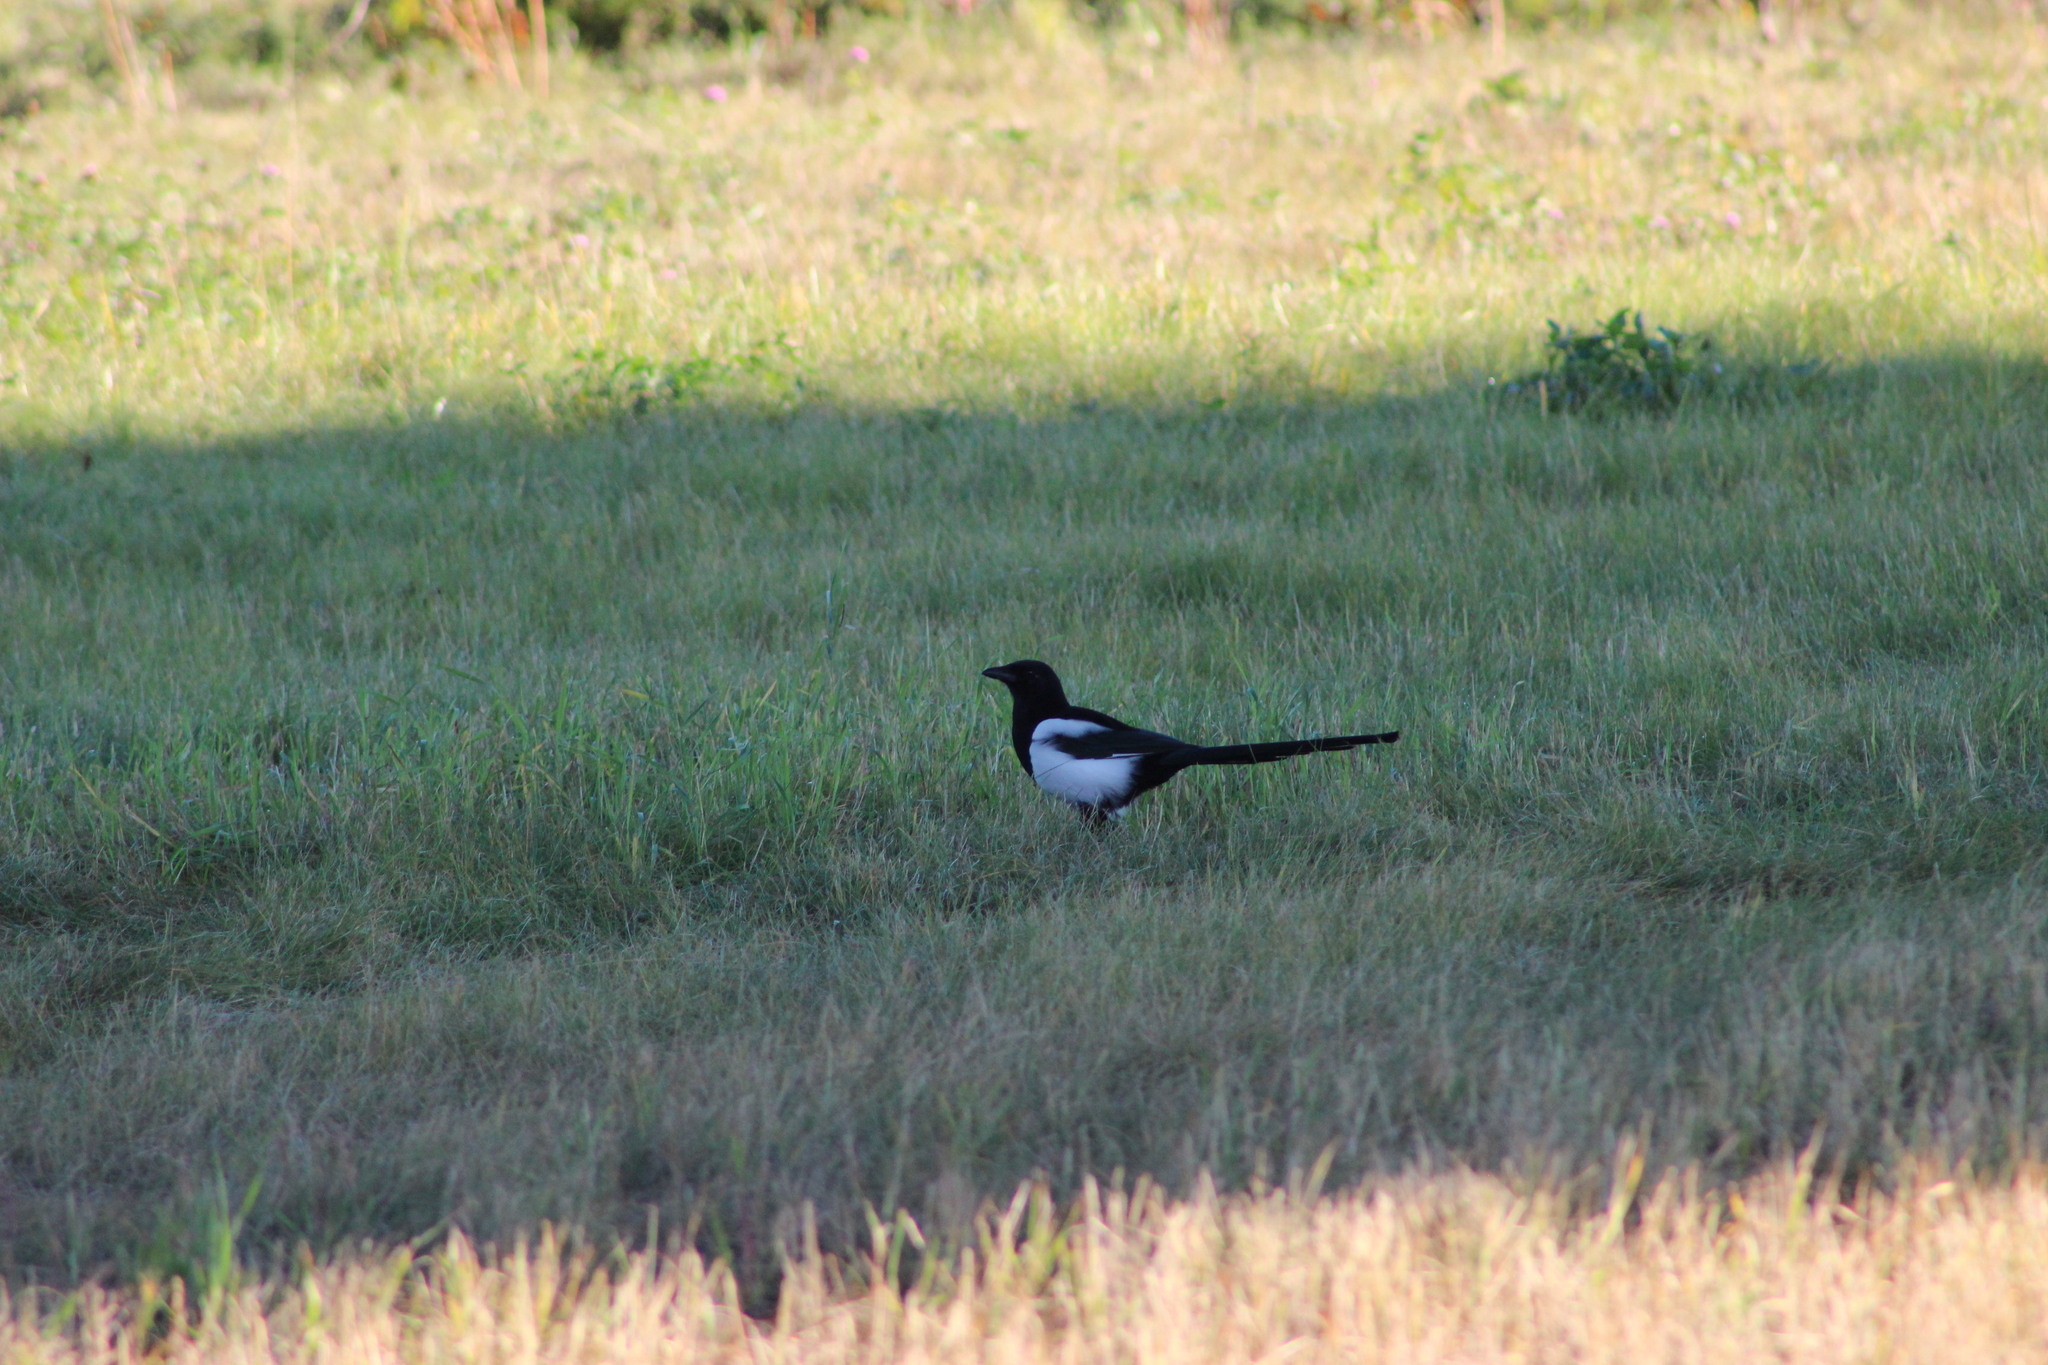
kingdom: Animalia
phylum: Chordata
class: Aves
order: Passeriformes
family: Corvidae
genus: Pica
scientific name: Pica pica
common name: Eurasian magpie
